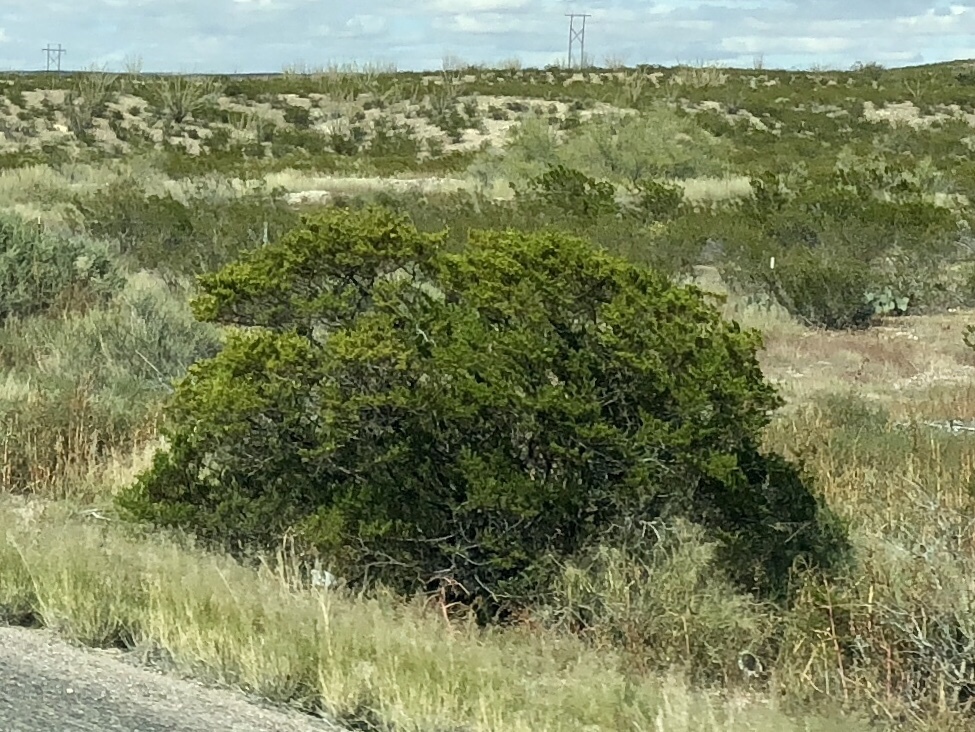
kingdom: Plantae
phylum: Tracheophyta
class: Magnoliopsida
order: Zygophyllales
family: Zygophyllaceae
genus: Larrea
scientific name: Larrea tridentata
